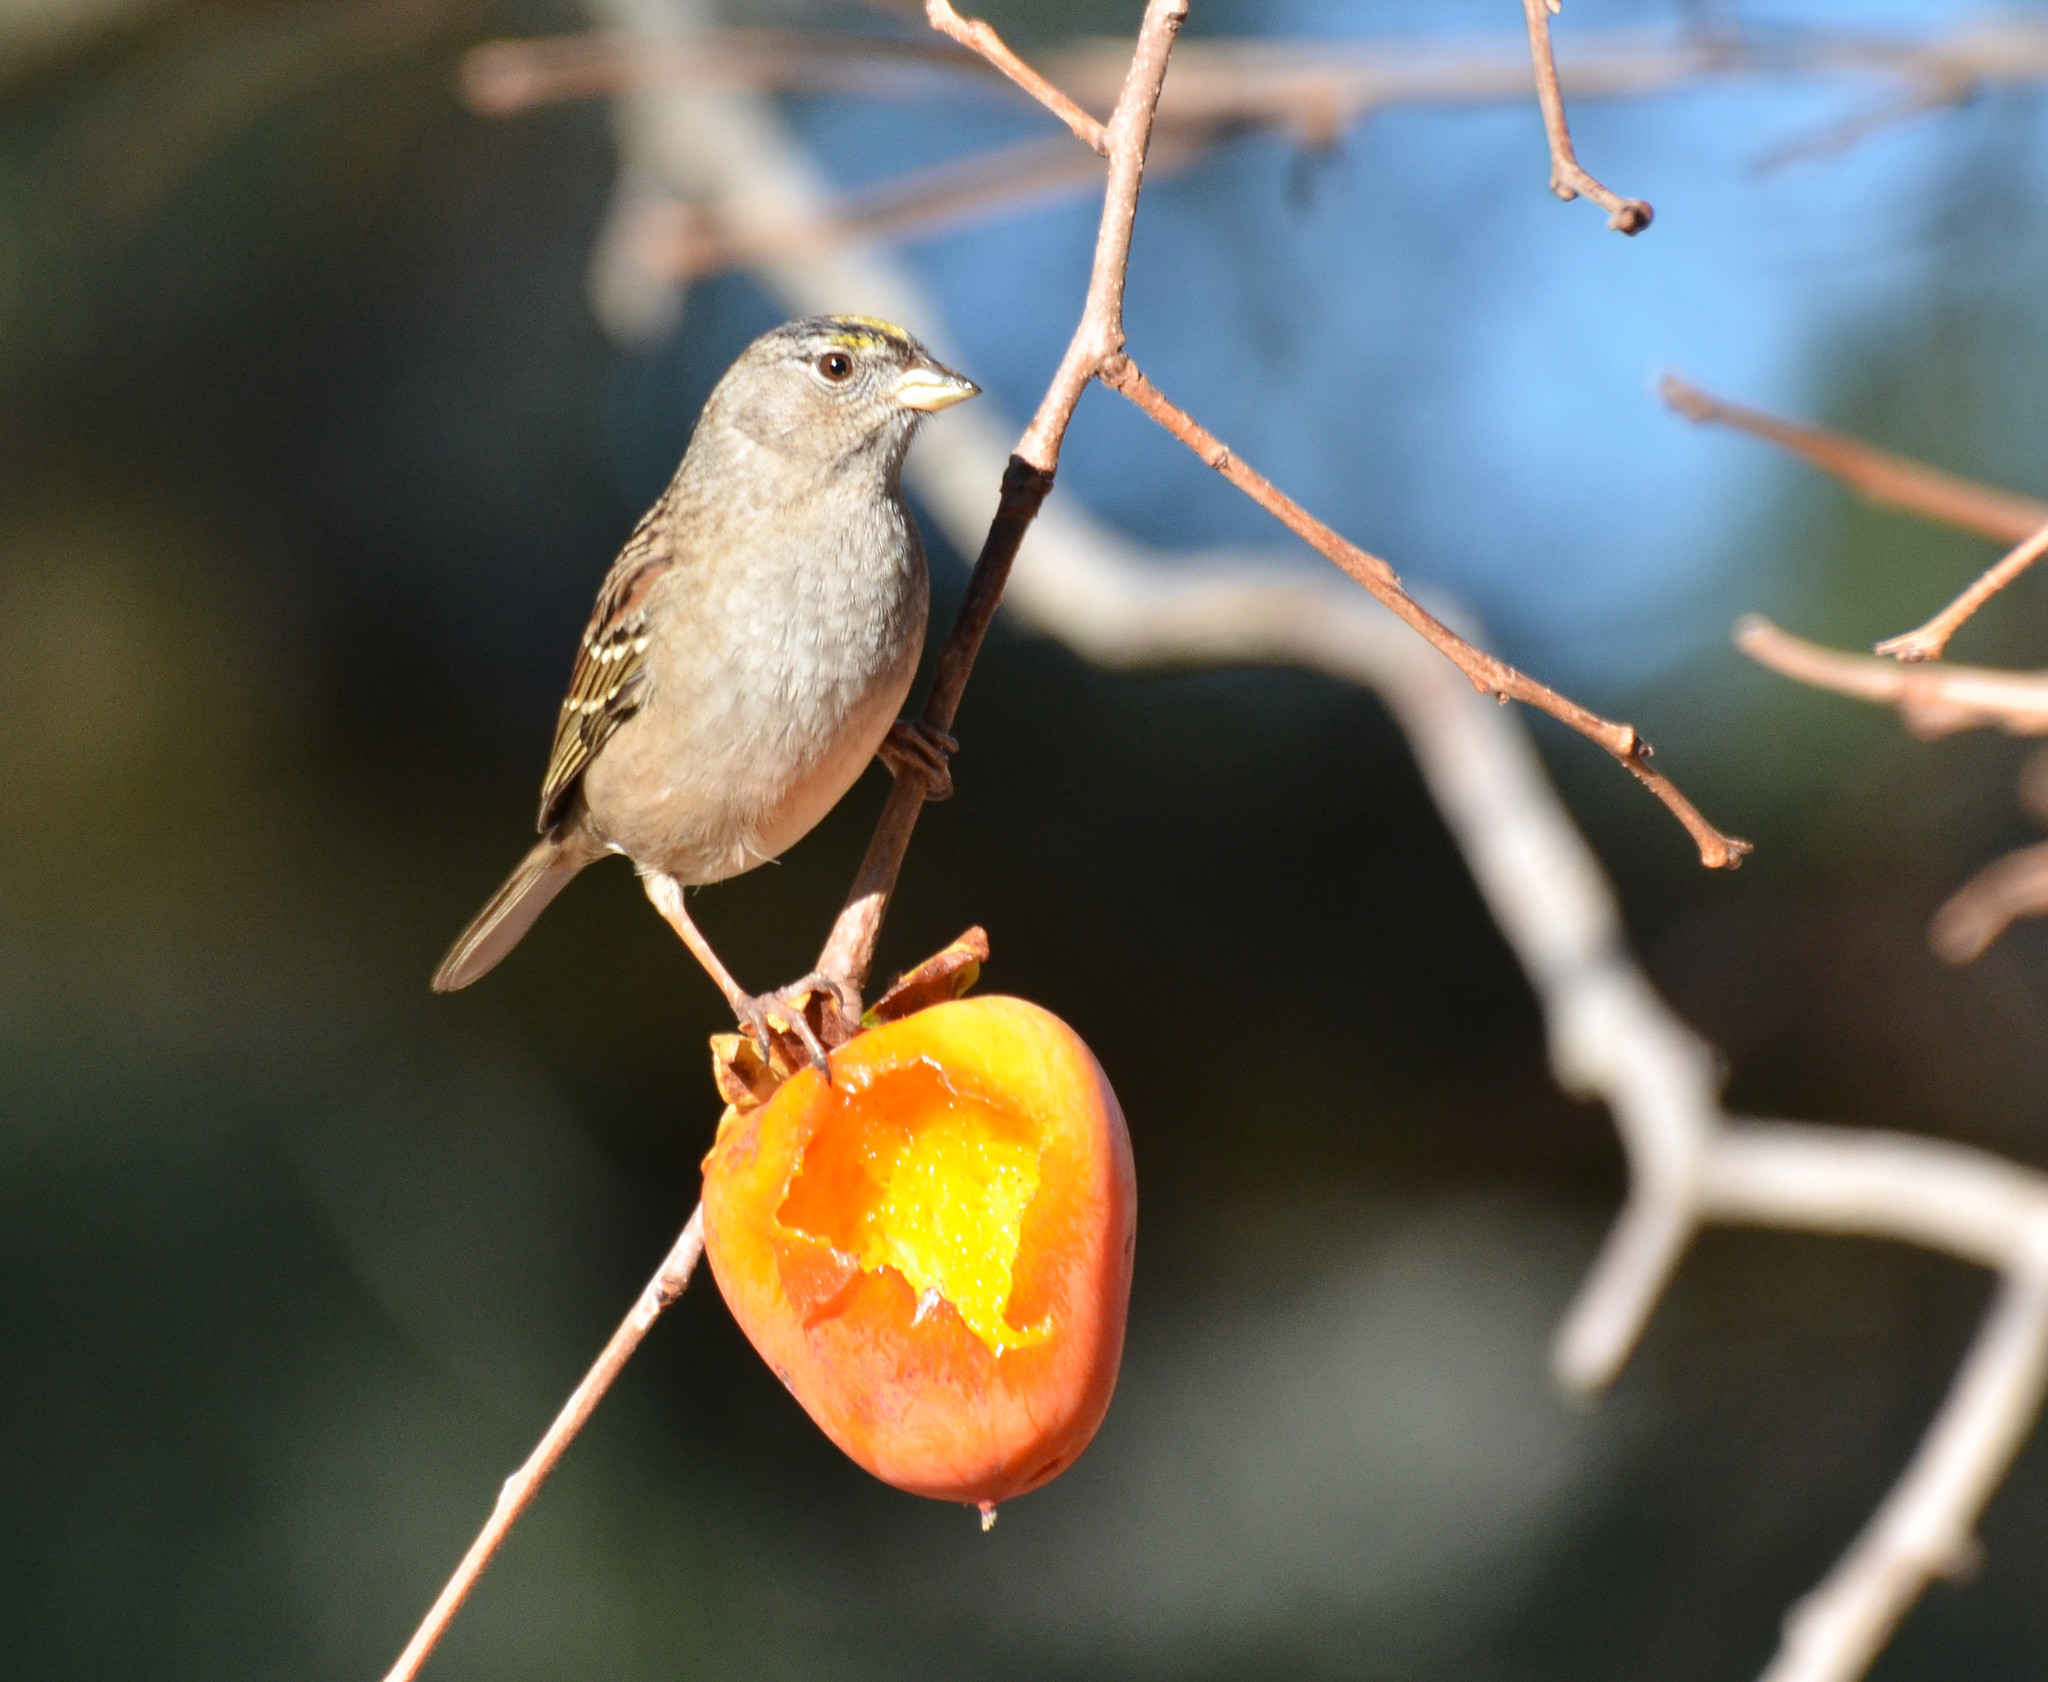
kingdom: Animalia
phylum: Chordata
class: Aves
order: Passeriformes
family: Passerellidae
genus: Zonotrichia
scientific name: Zonotrichia atricapilla
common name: Golden-crowned sparrow
